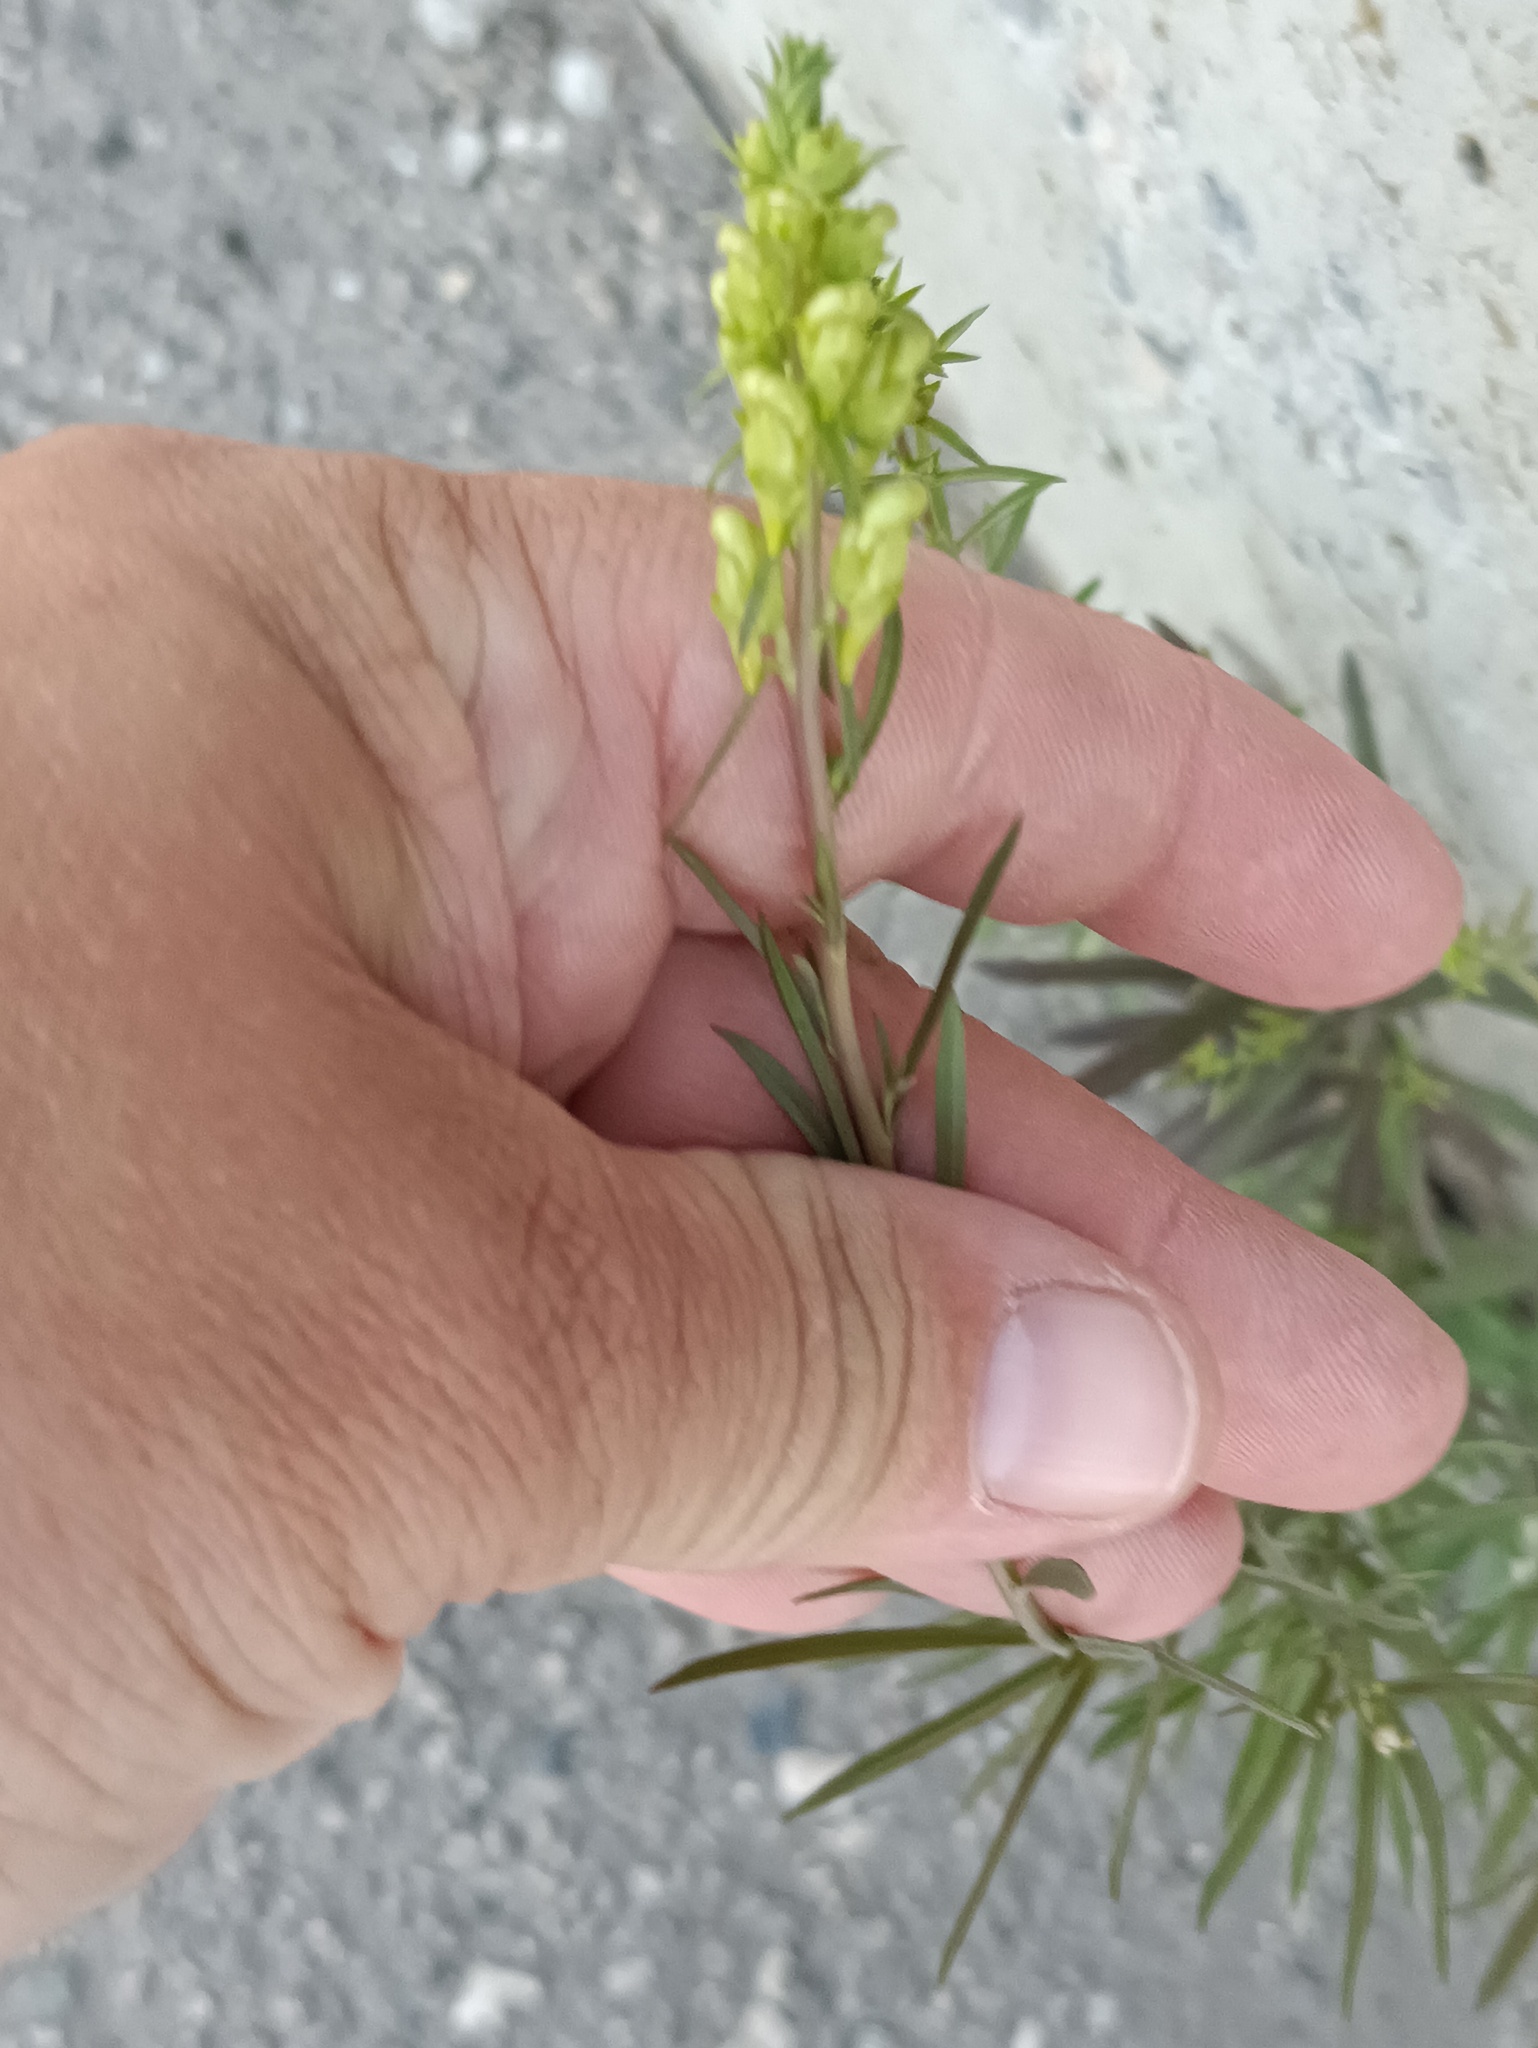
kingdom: Plantae
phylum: Tracheophyta
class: Magnoliopsida
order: Lamiales
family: Plantaginaceae
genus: Linaria
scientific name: Linaria vulgaris
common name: Butter and eggs
